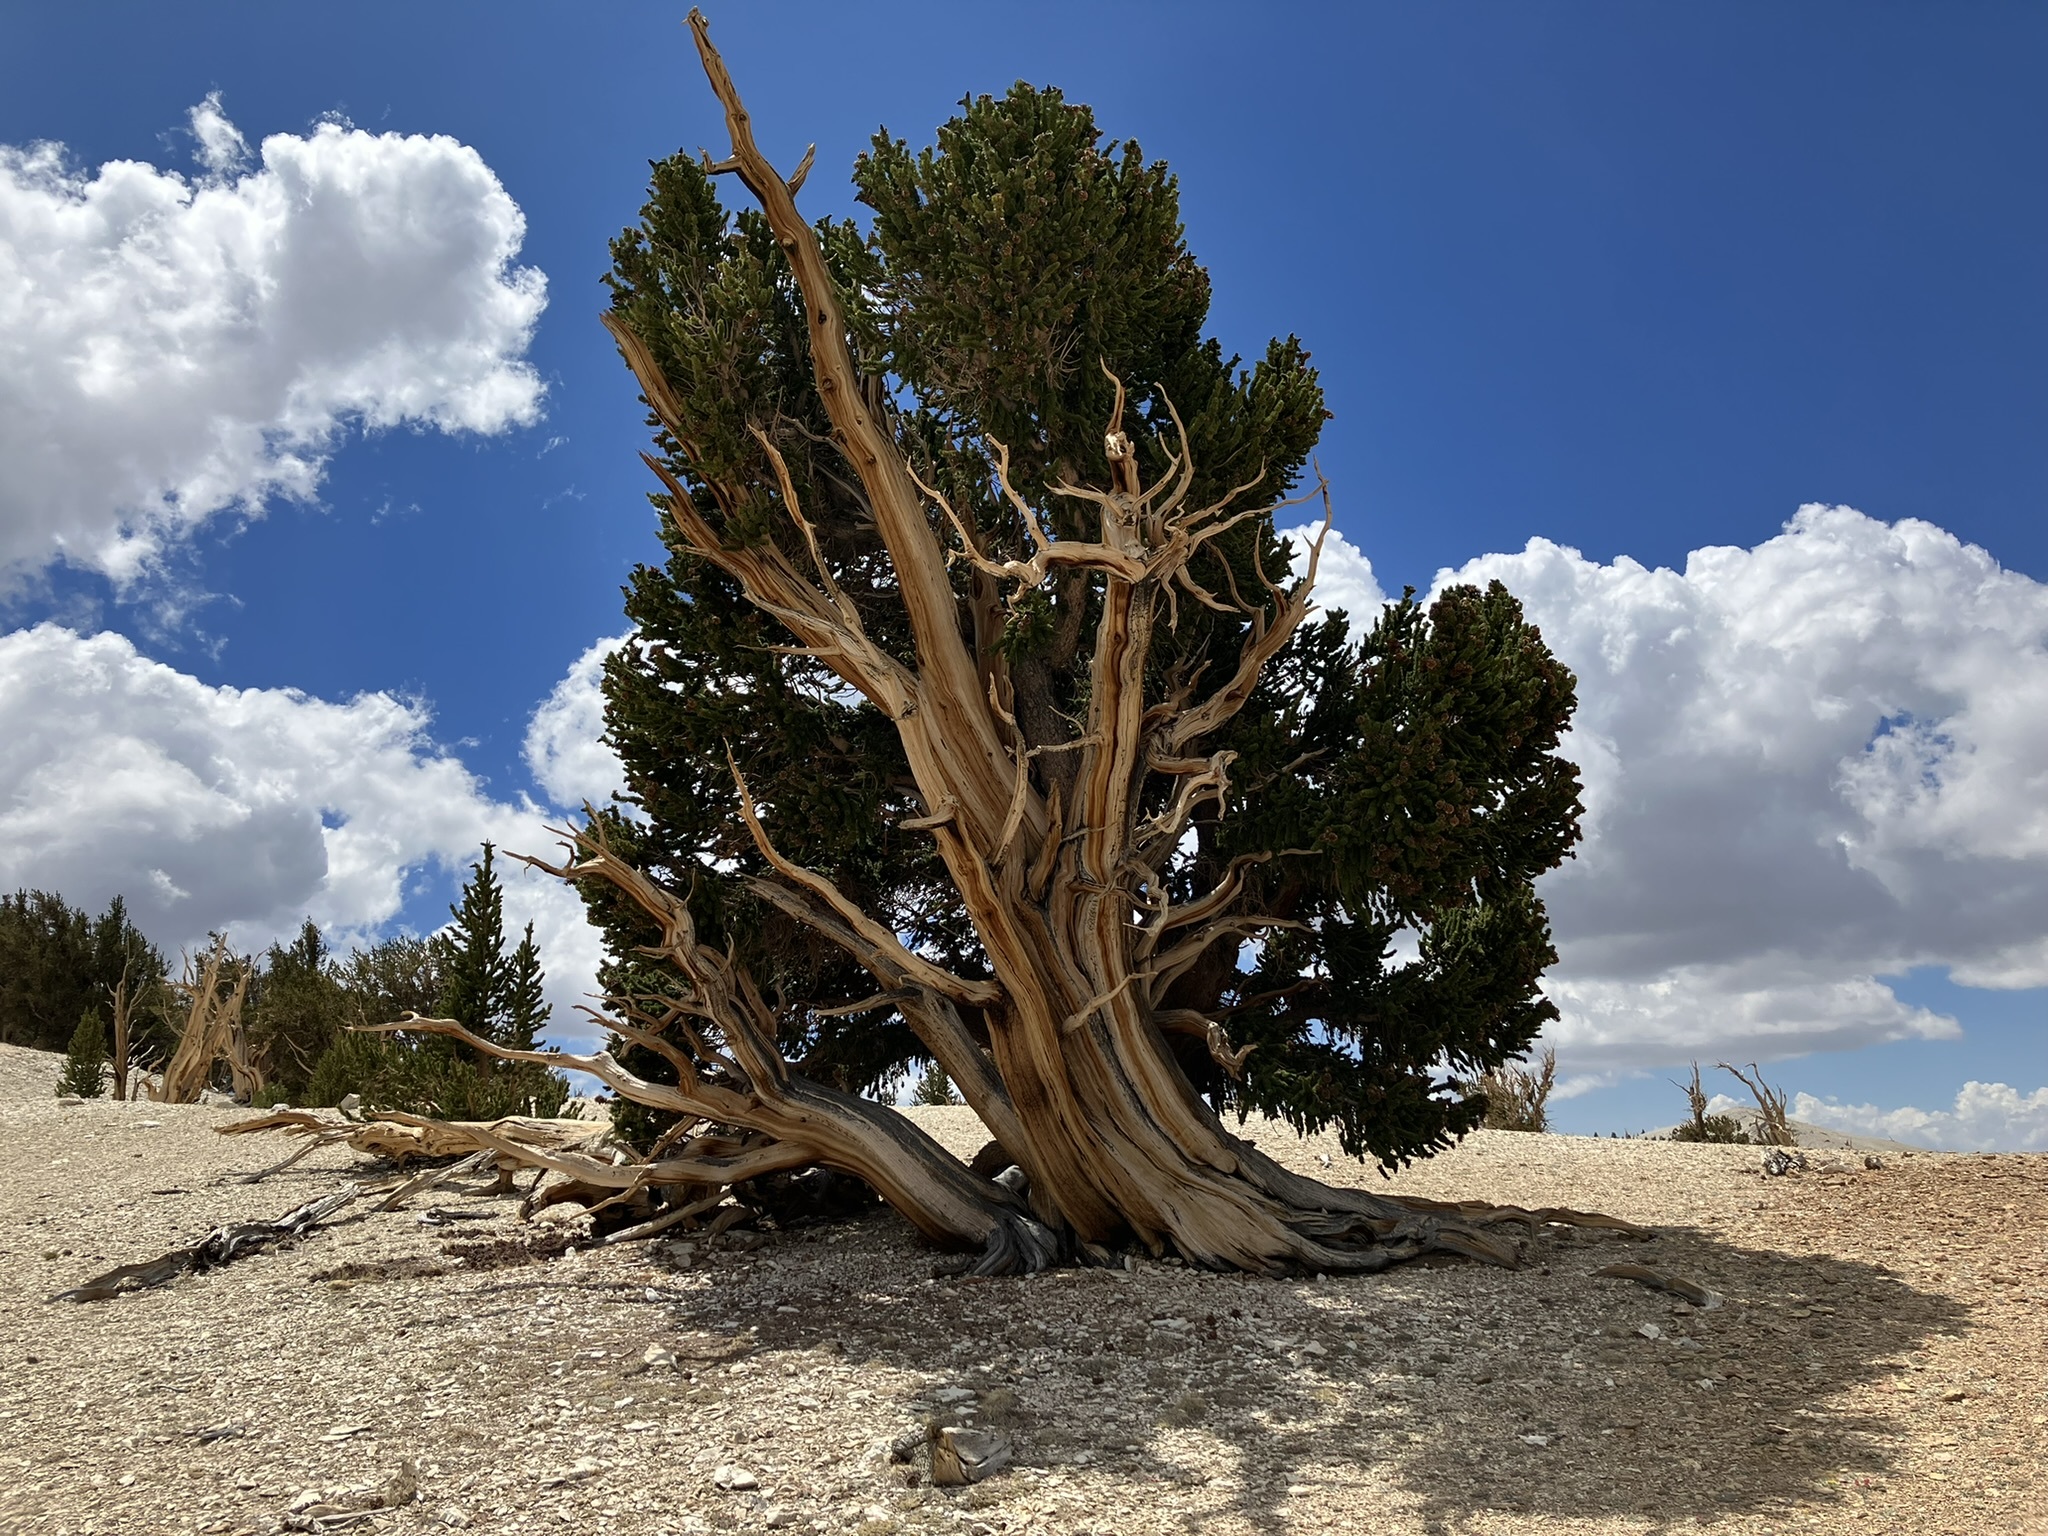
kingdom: Plantae
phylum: Tracheophyta
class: Pinopsida
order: Pinales
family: Pinaceae
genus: Pinus
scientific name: Pinus longaeva
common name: Intermountain bristlecone pine
